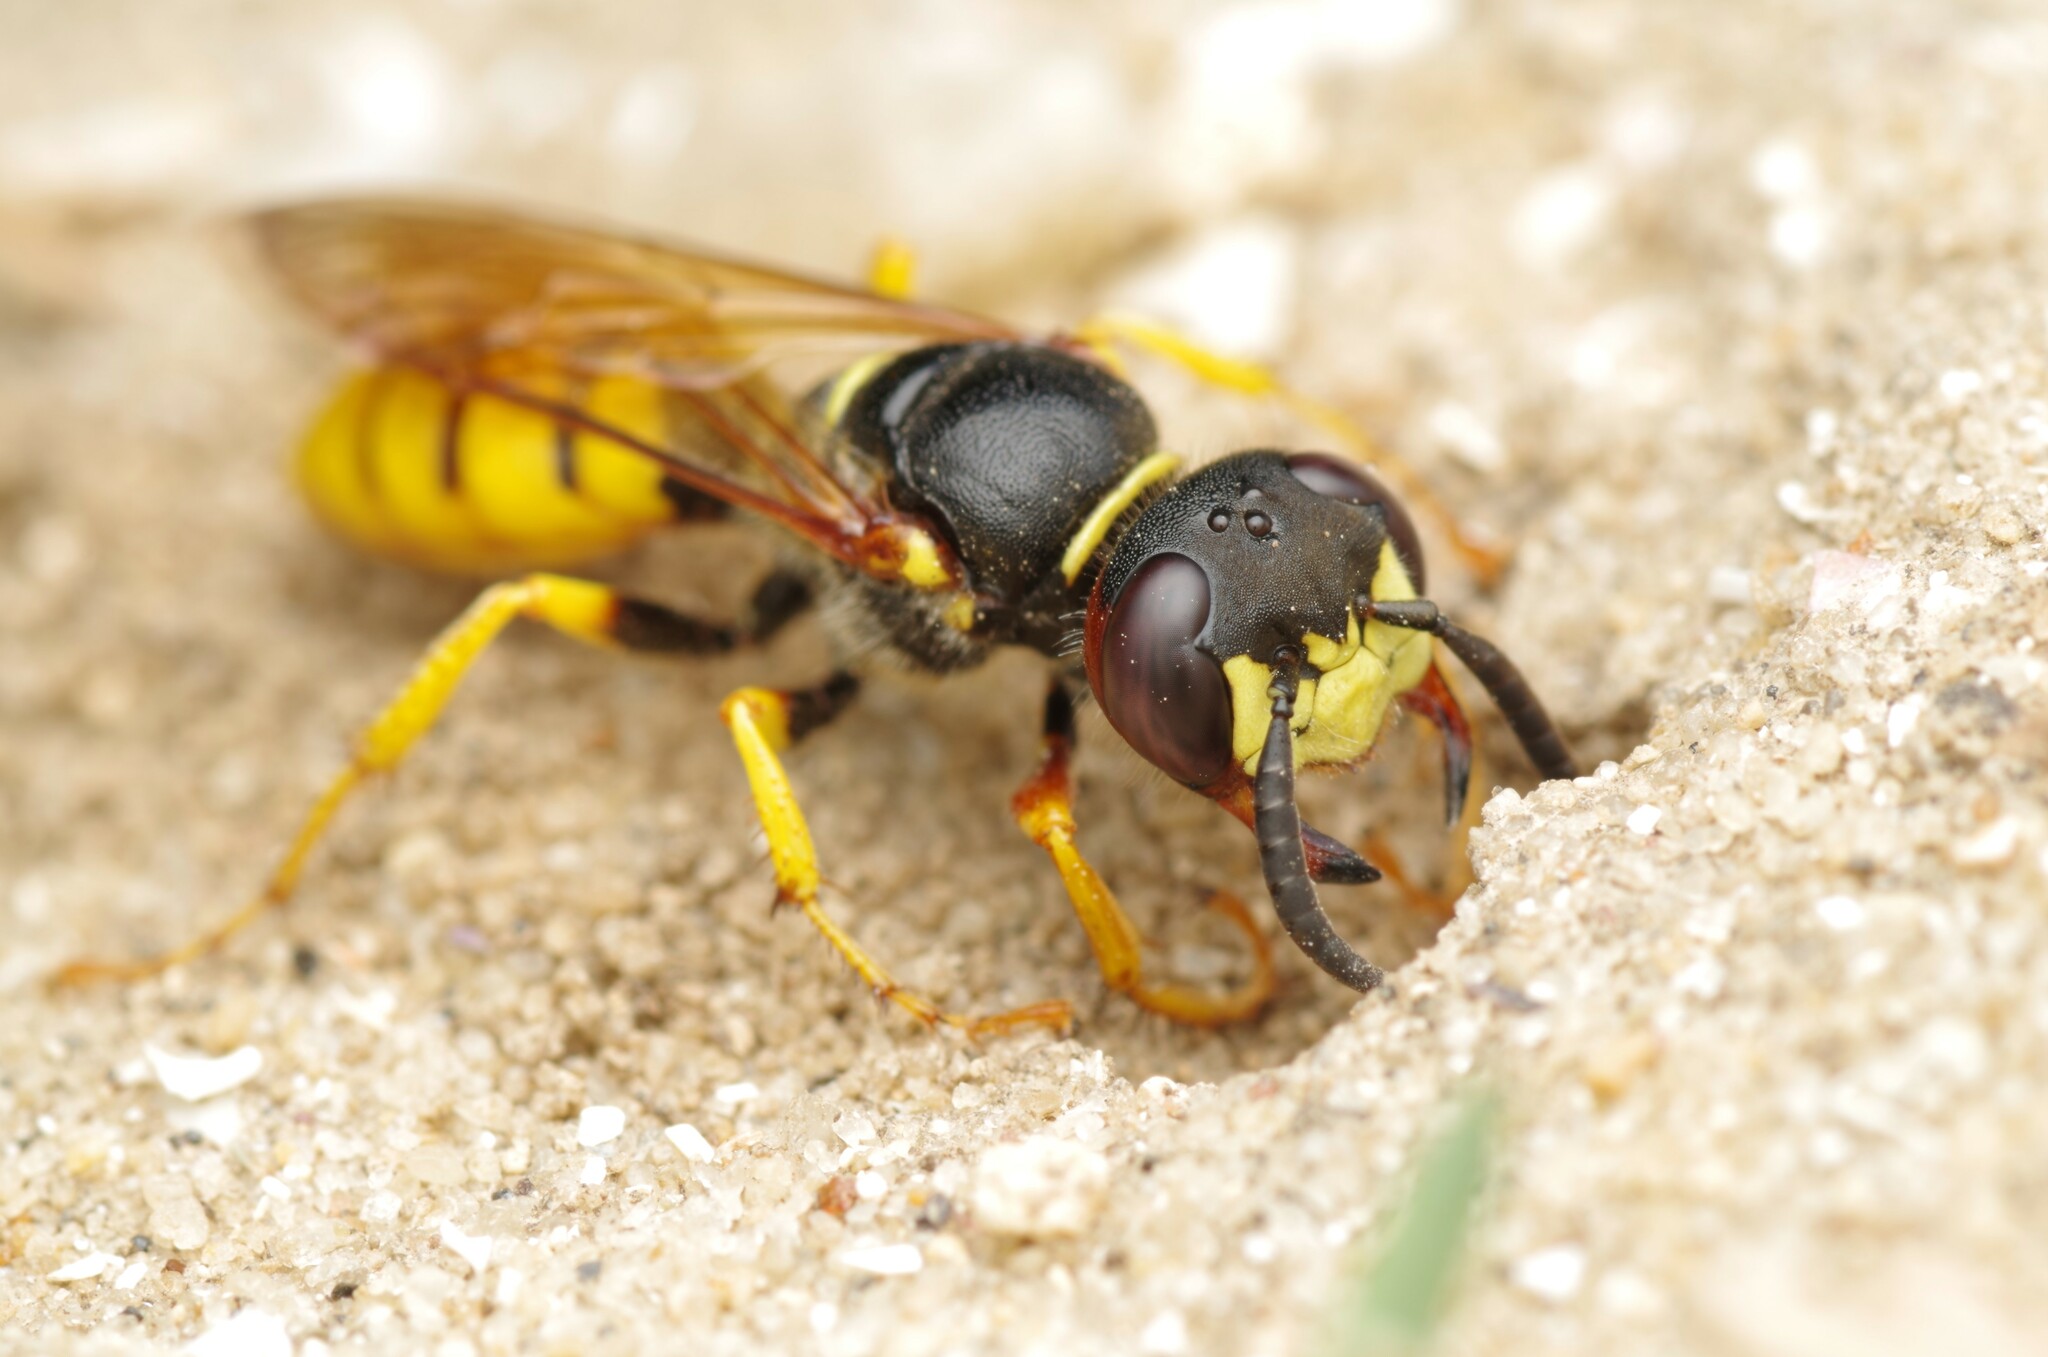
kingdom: Animalia
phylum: Arthropoda
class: Insecta
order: Hymenoptera
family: Crabronidae
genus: Philanthus
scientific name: Philanthus triangulum
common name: Bee wolf
